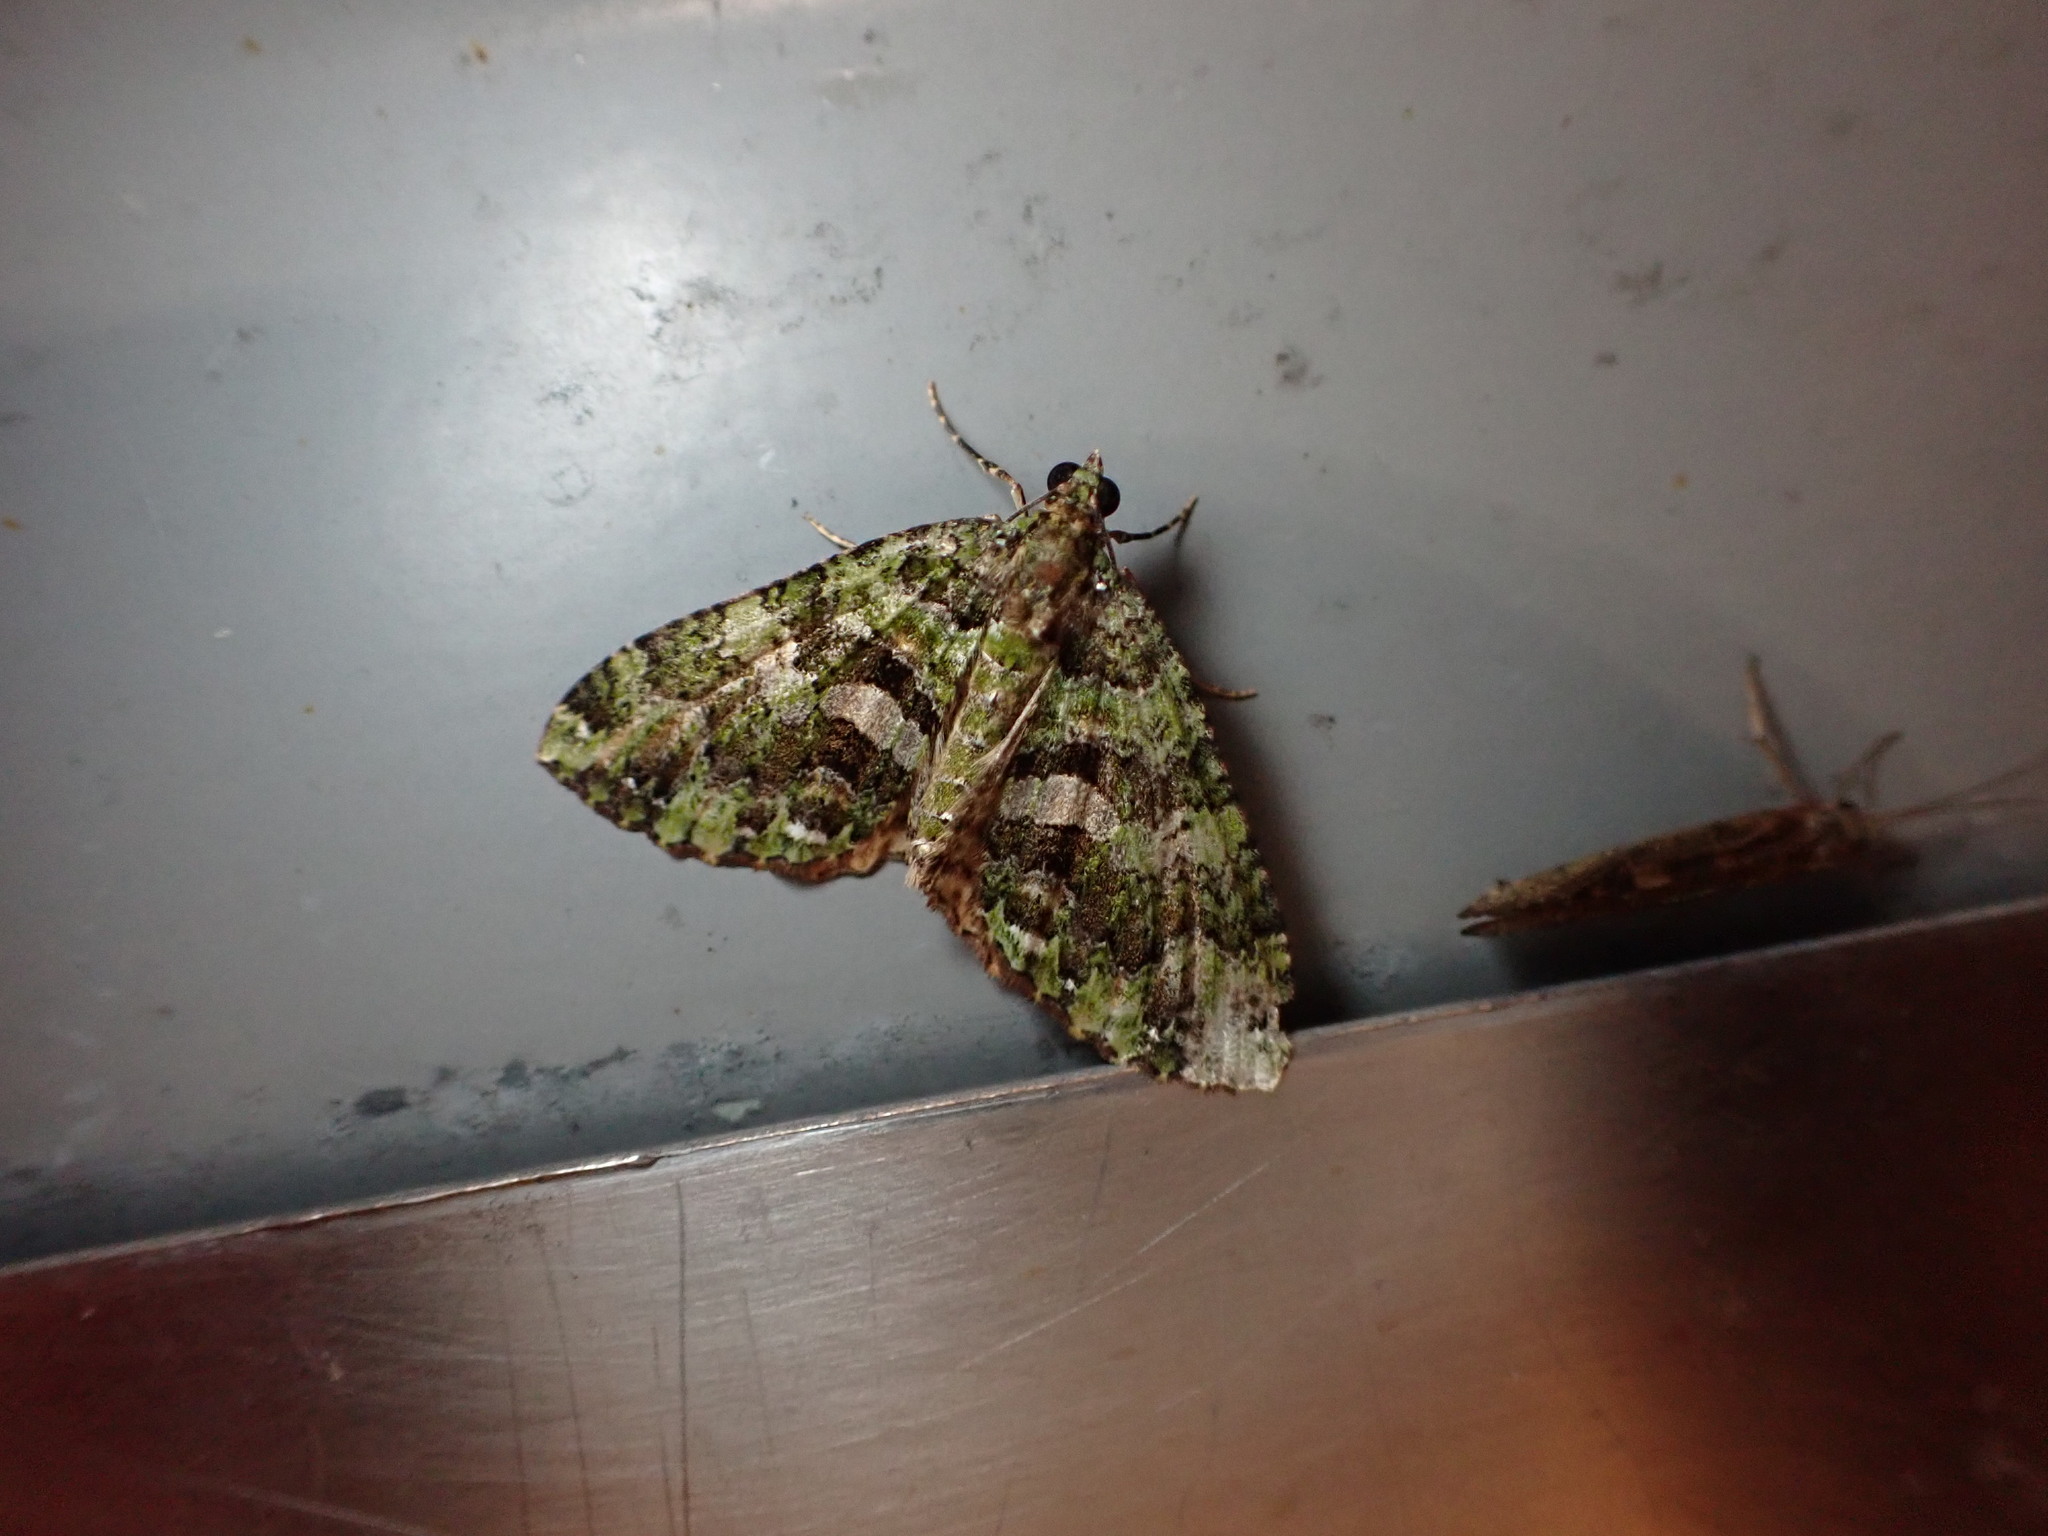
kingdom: Animalia
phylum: Arthropoda
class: Insecta
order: Lepidoptera
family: Geometridae
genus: Austrocidaria
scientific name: Austrocidaria similata
